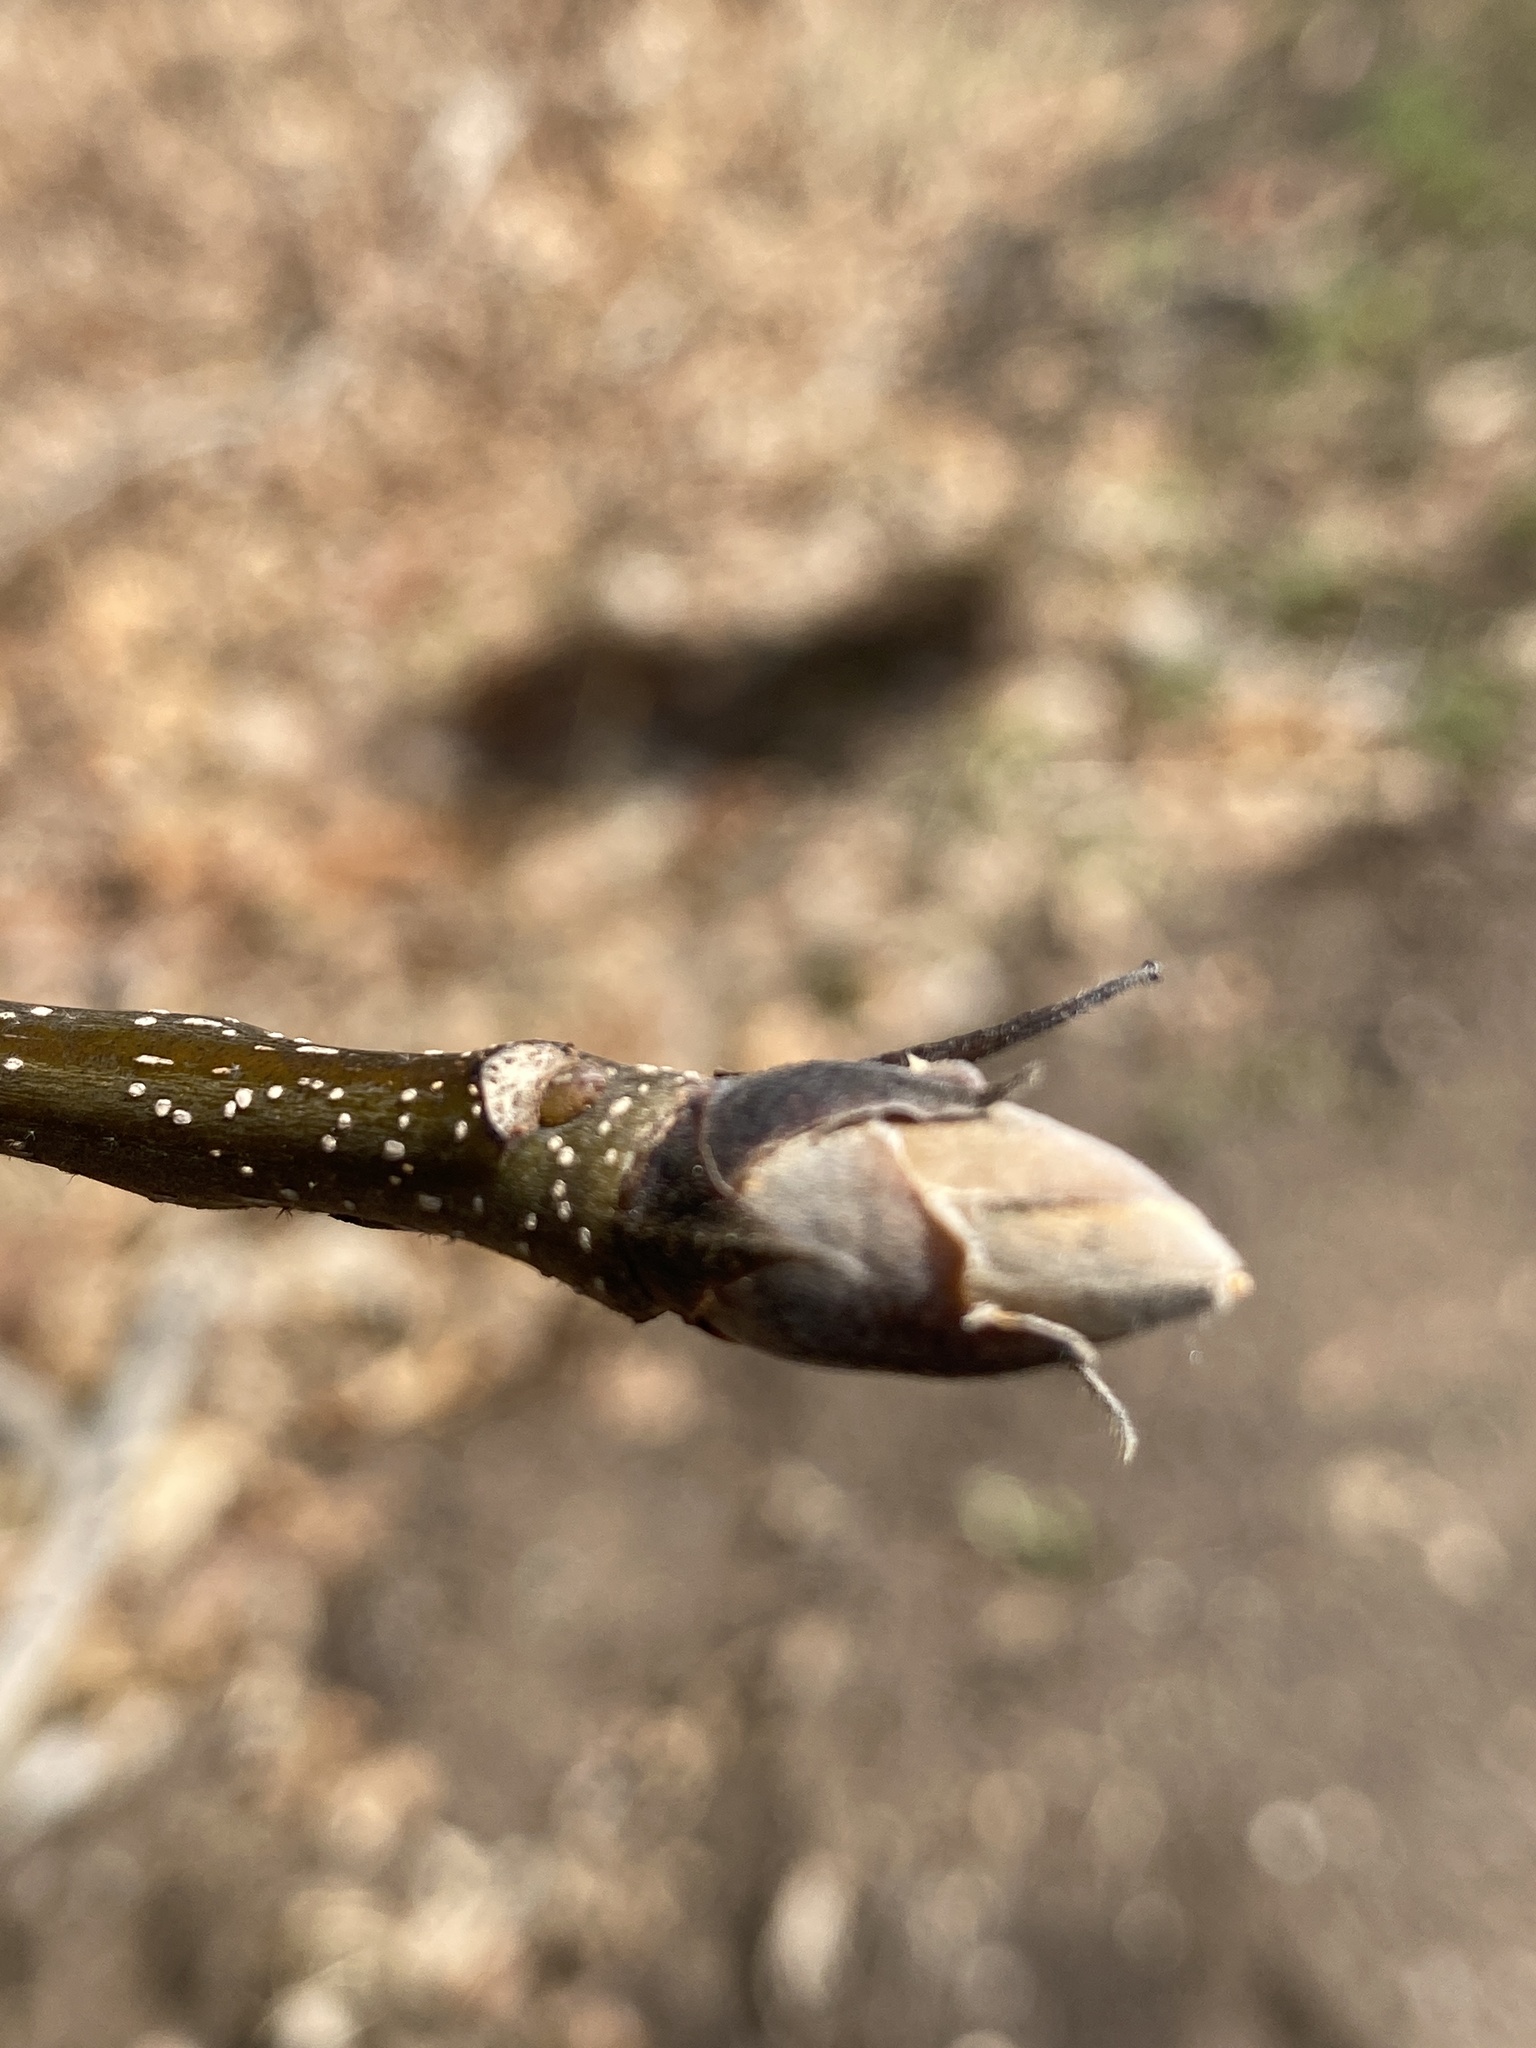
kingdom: Plantae
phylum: Tracheophyta
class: Magnoliopsida
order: Fagales
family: Juglandaceae
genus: Carya
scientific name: Carya ovata
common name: Shagbark hickory
